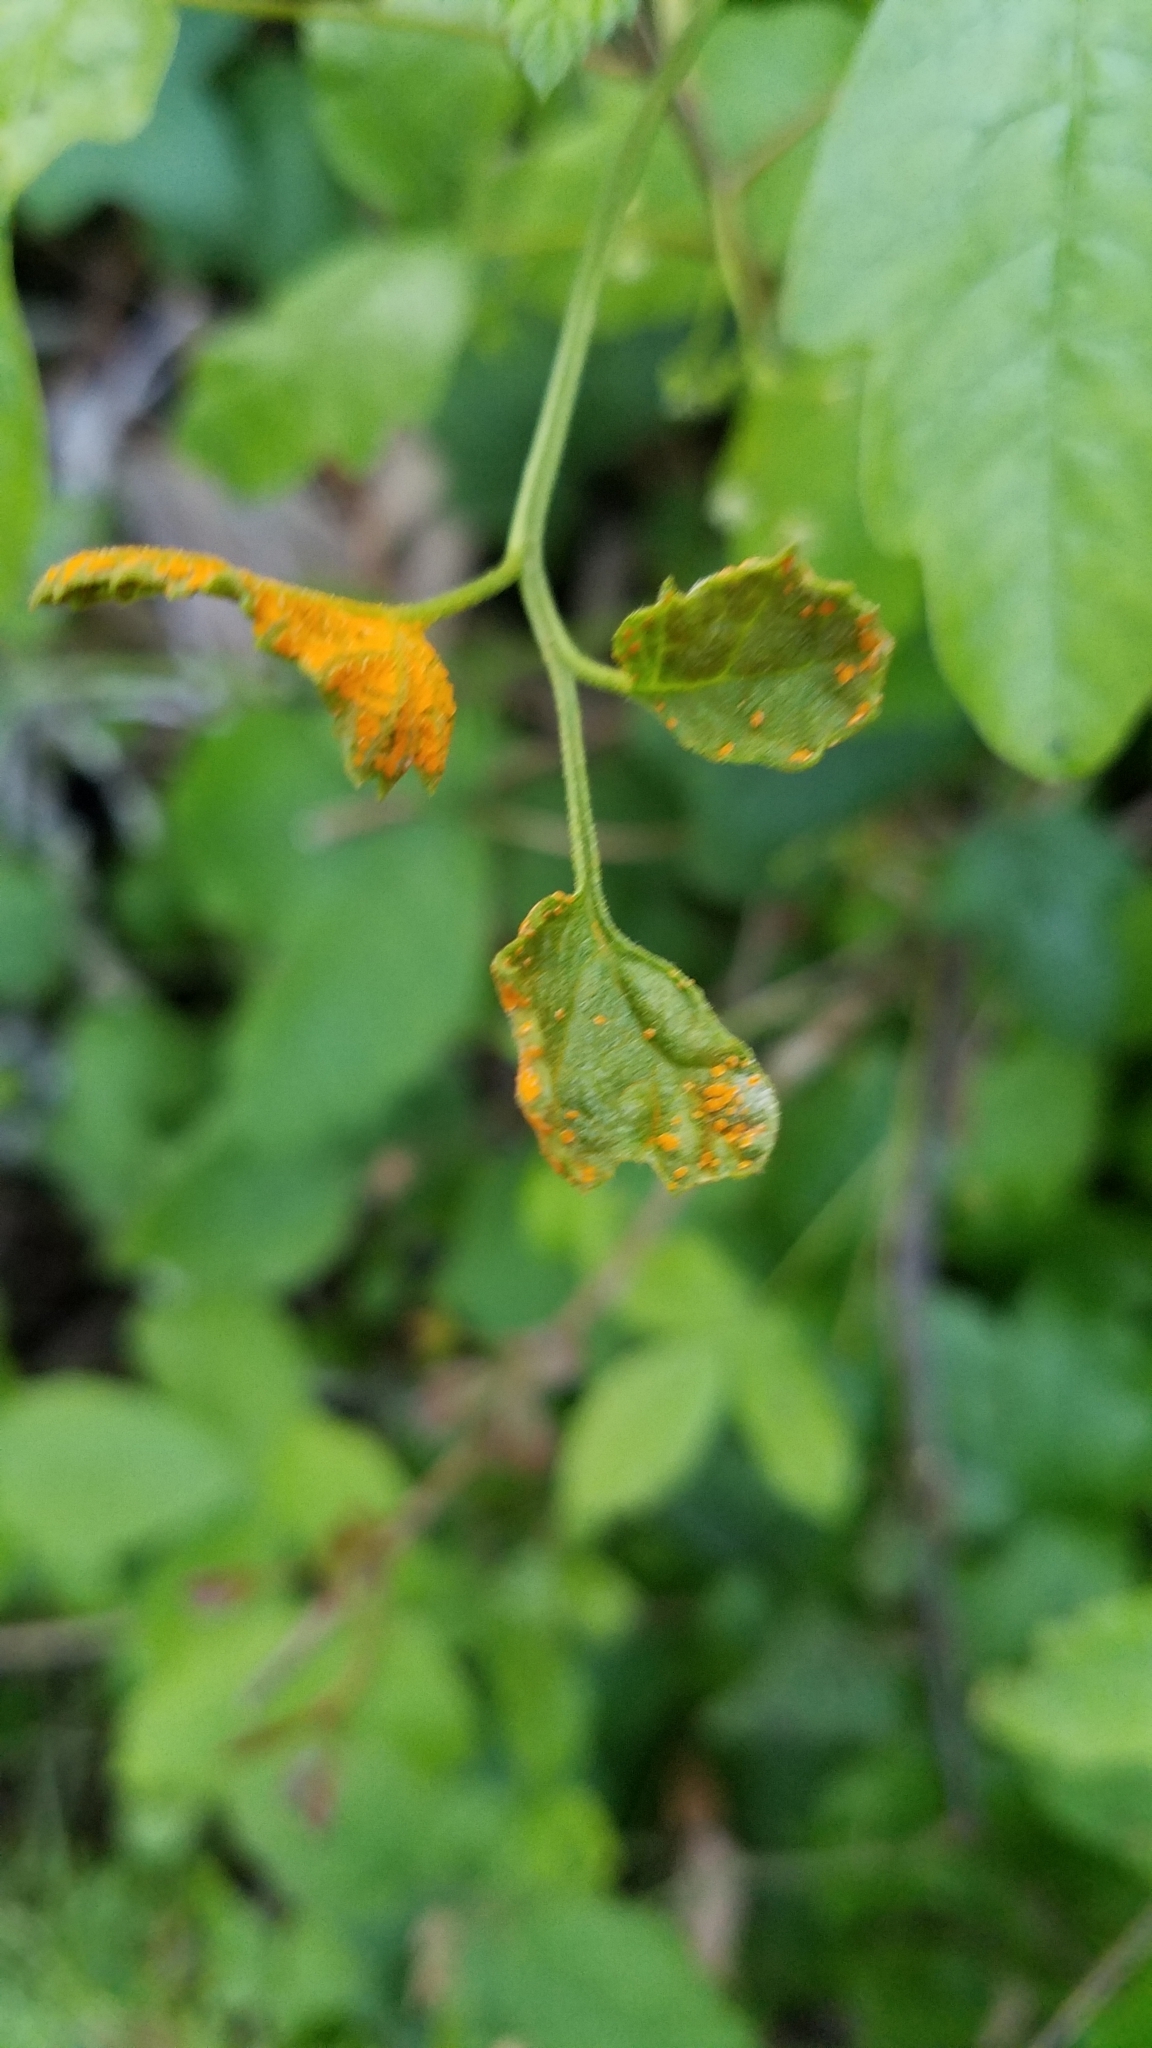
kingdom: Fungi
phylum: Basidiomycota
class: Pucciniomycetes
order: Pucciniales
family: Phragmidiaceae
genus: Arthuriomyces
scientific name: Arthuriomyces peckianus
